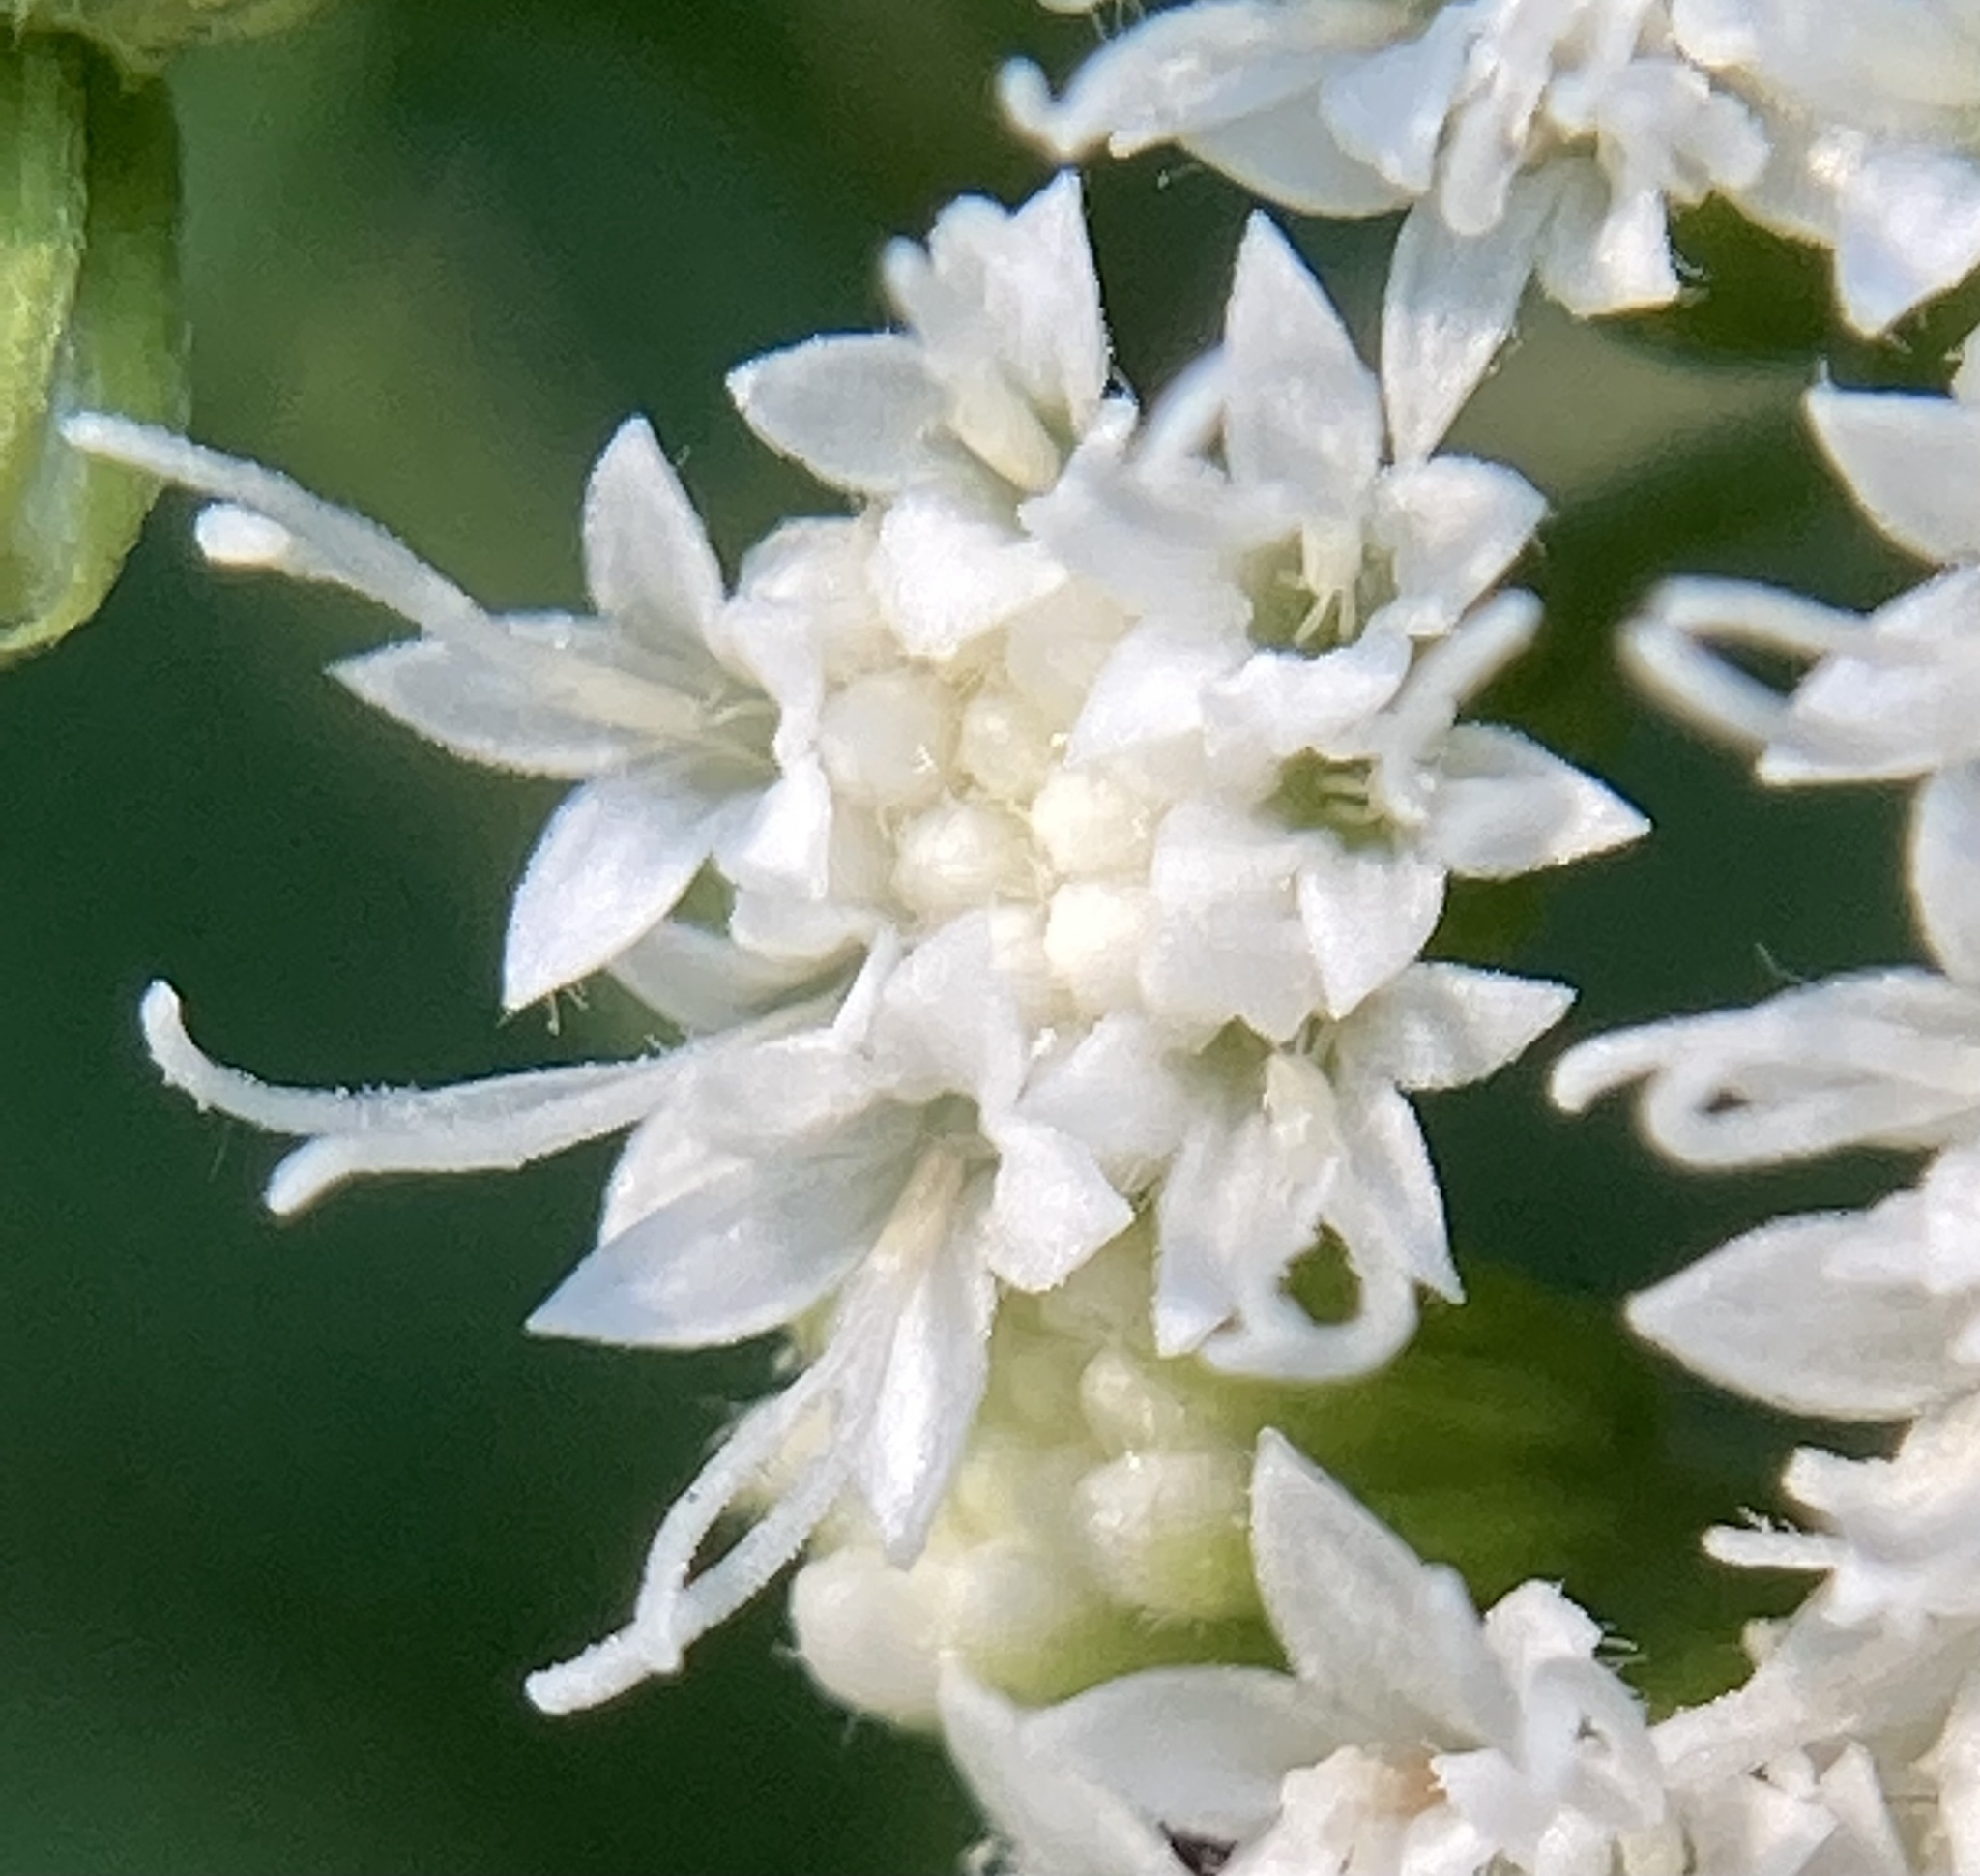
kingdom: Plantae
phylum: Tracheophyta
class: Magnoliopsida
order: Asterales
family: Asteraceae
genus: Ageratina
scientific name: Ageratina altissima
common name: White snakeroot
